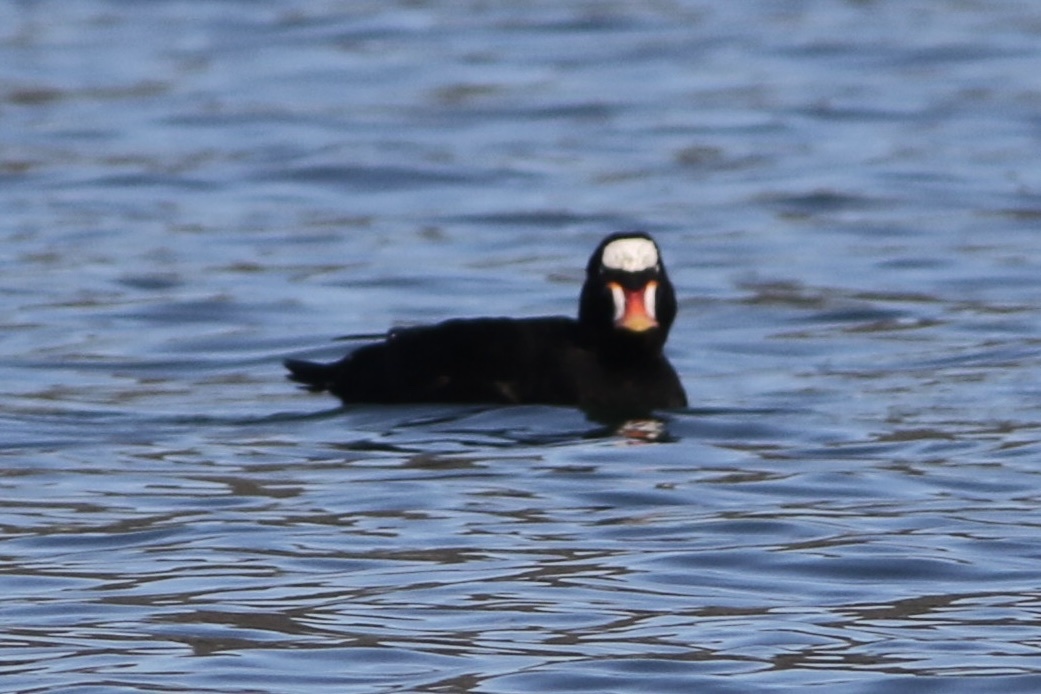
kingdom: Animalia
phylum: Chordata
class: Aves
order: Anseriformes
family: Anatidae
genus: Melanitta
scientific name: Melanitta perspicillata
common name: Surf scoter
